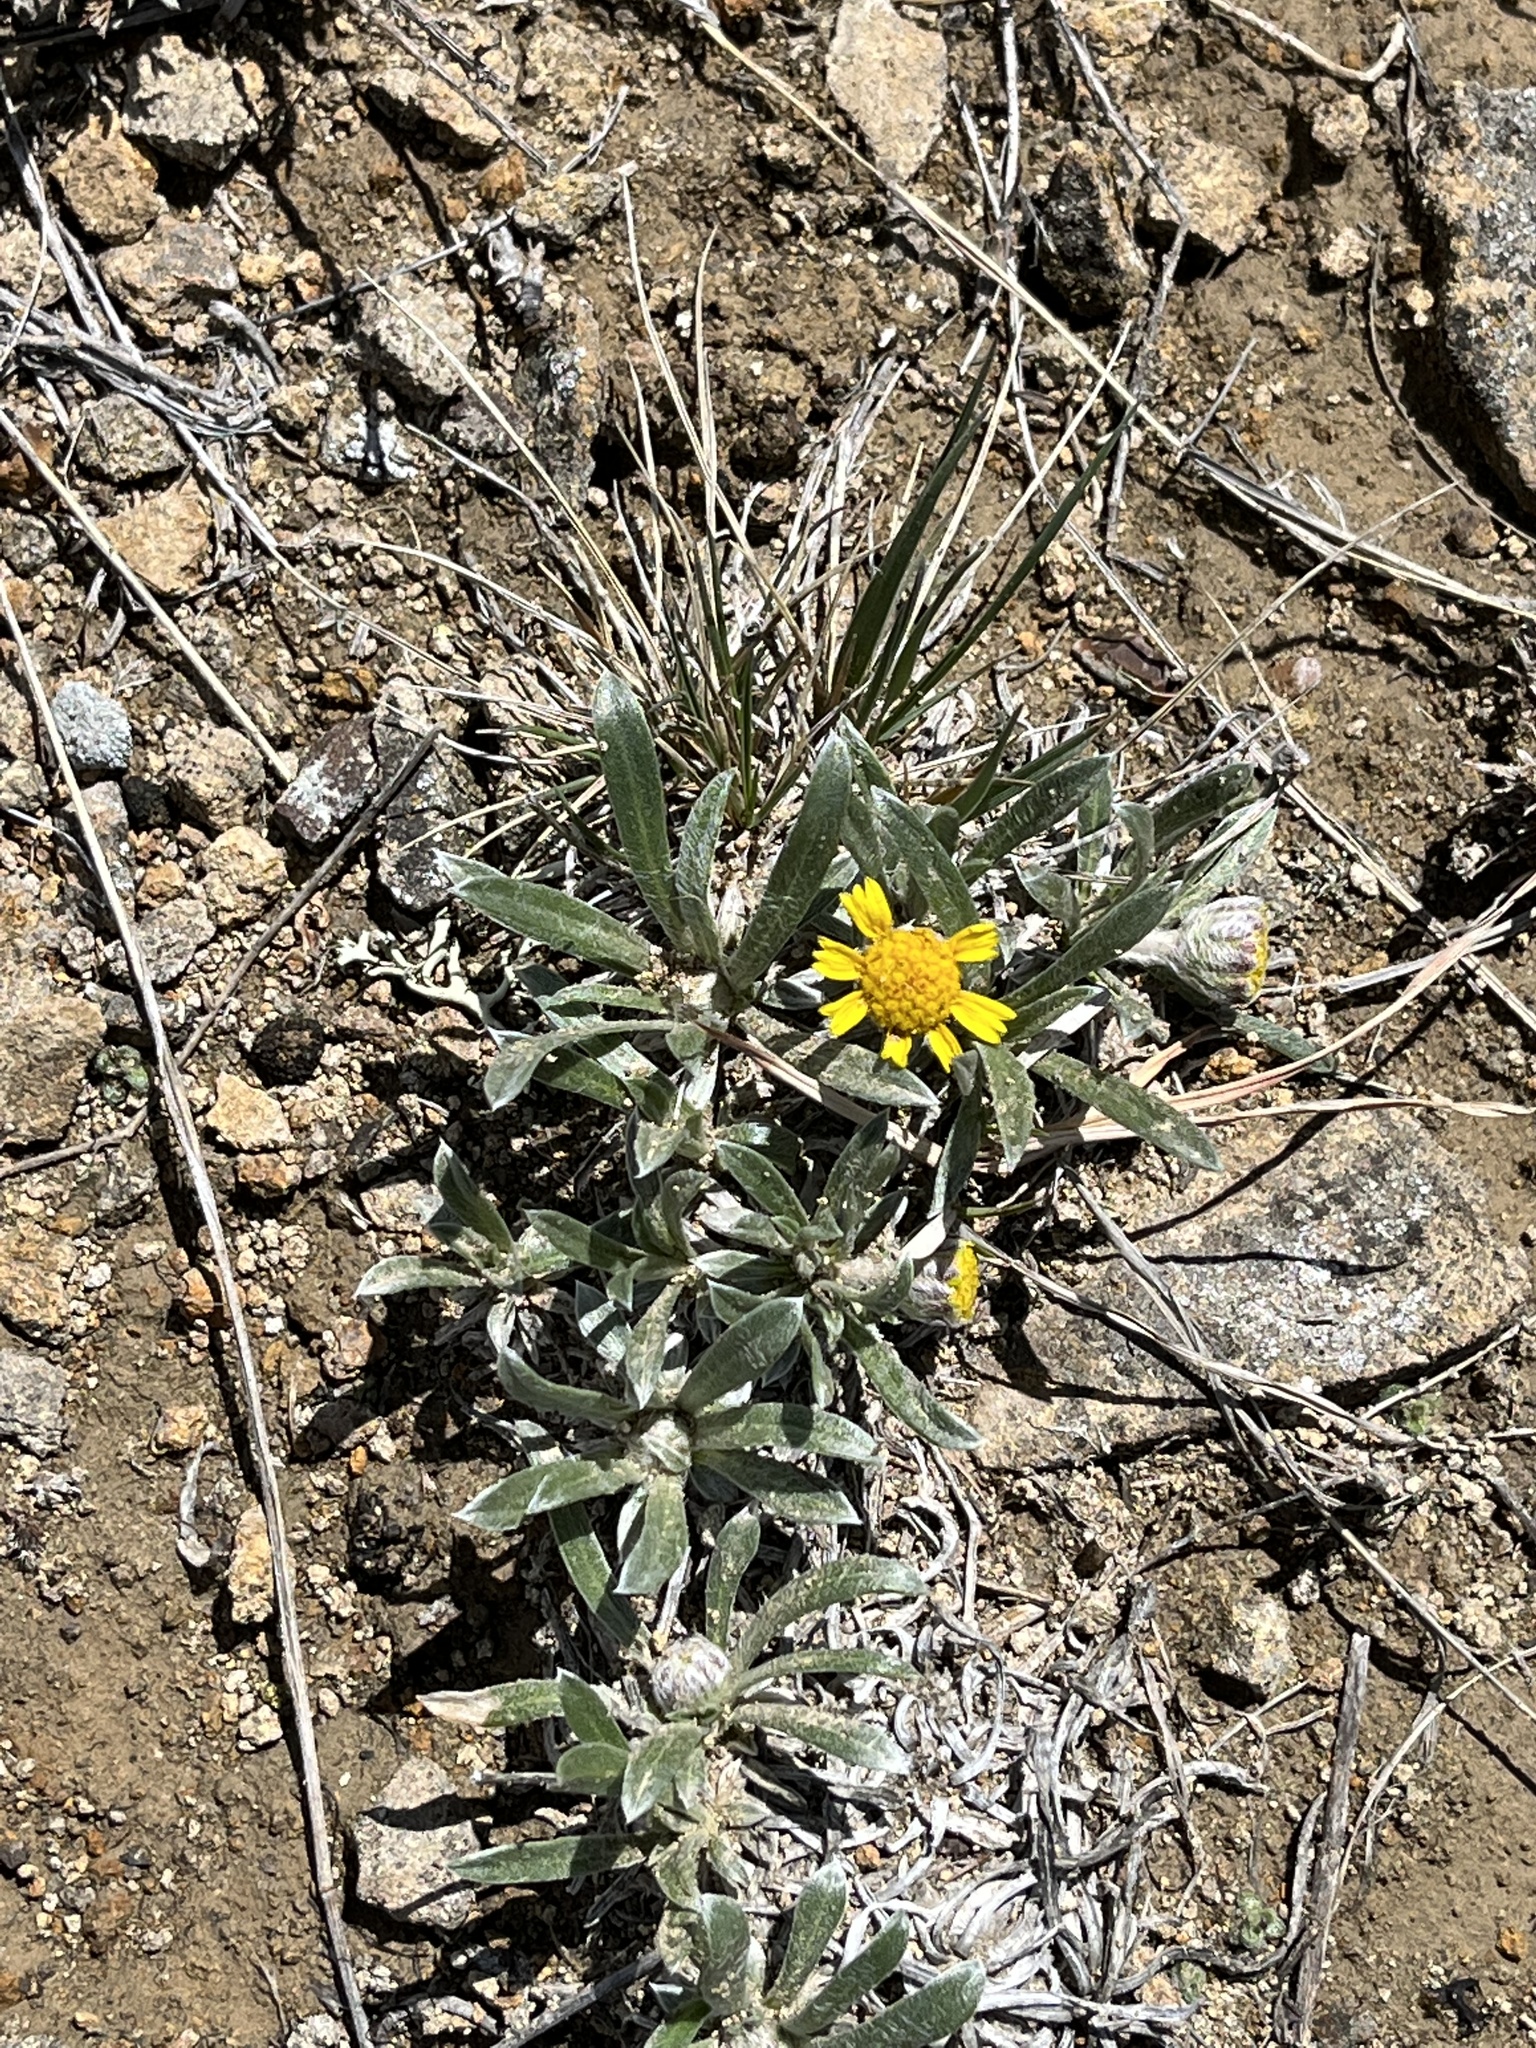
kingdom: Plantae
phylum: Tracheophyta
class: Magnoliopsida
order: Asterales
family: Asteraceae
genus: Tetraneuris
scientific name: Tetraneuris acaulis
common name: Butte marigold
